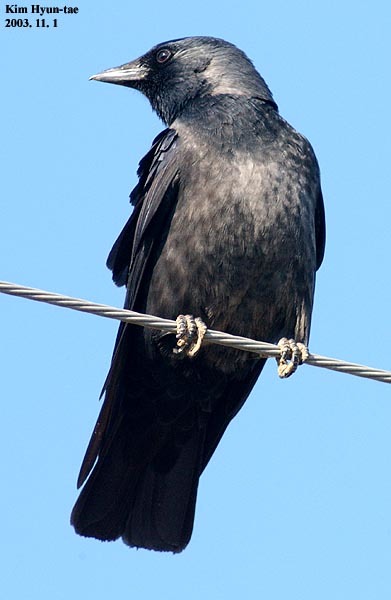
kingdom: Animalia
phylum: Chordata
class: Aves
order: Passeriformes
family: Corvidae
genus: Coloeus
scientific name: Coloeus dauuricus
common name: Daurian jackdaw
